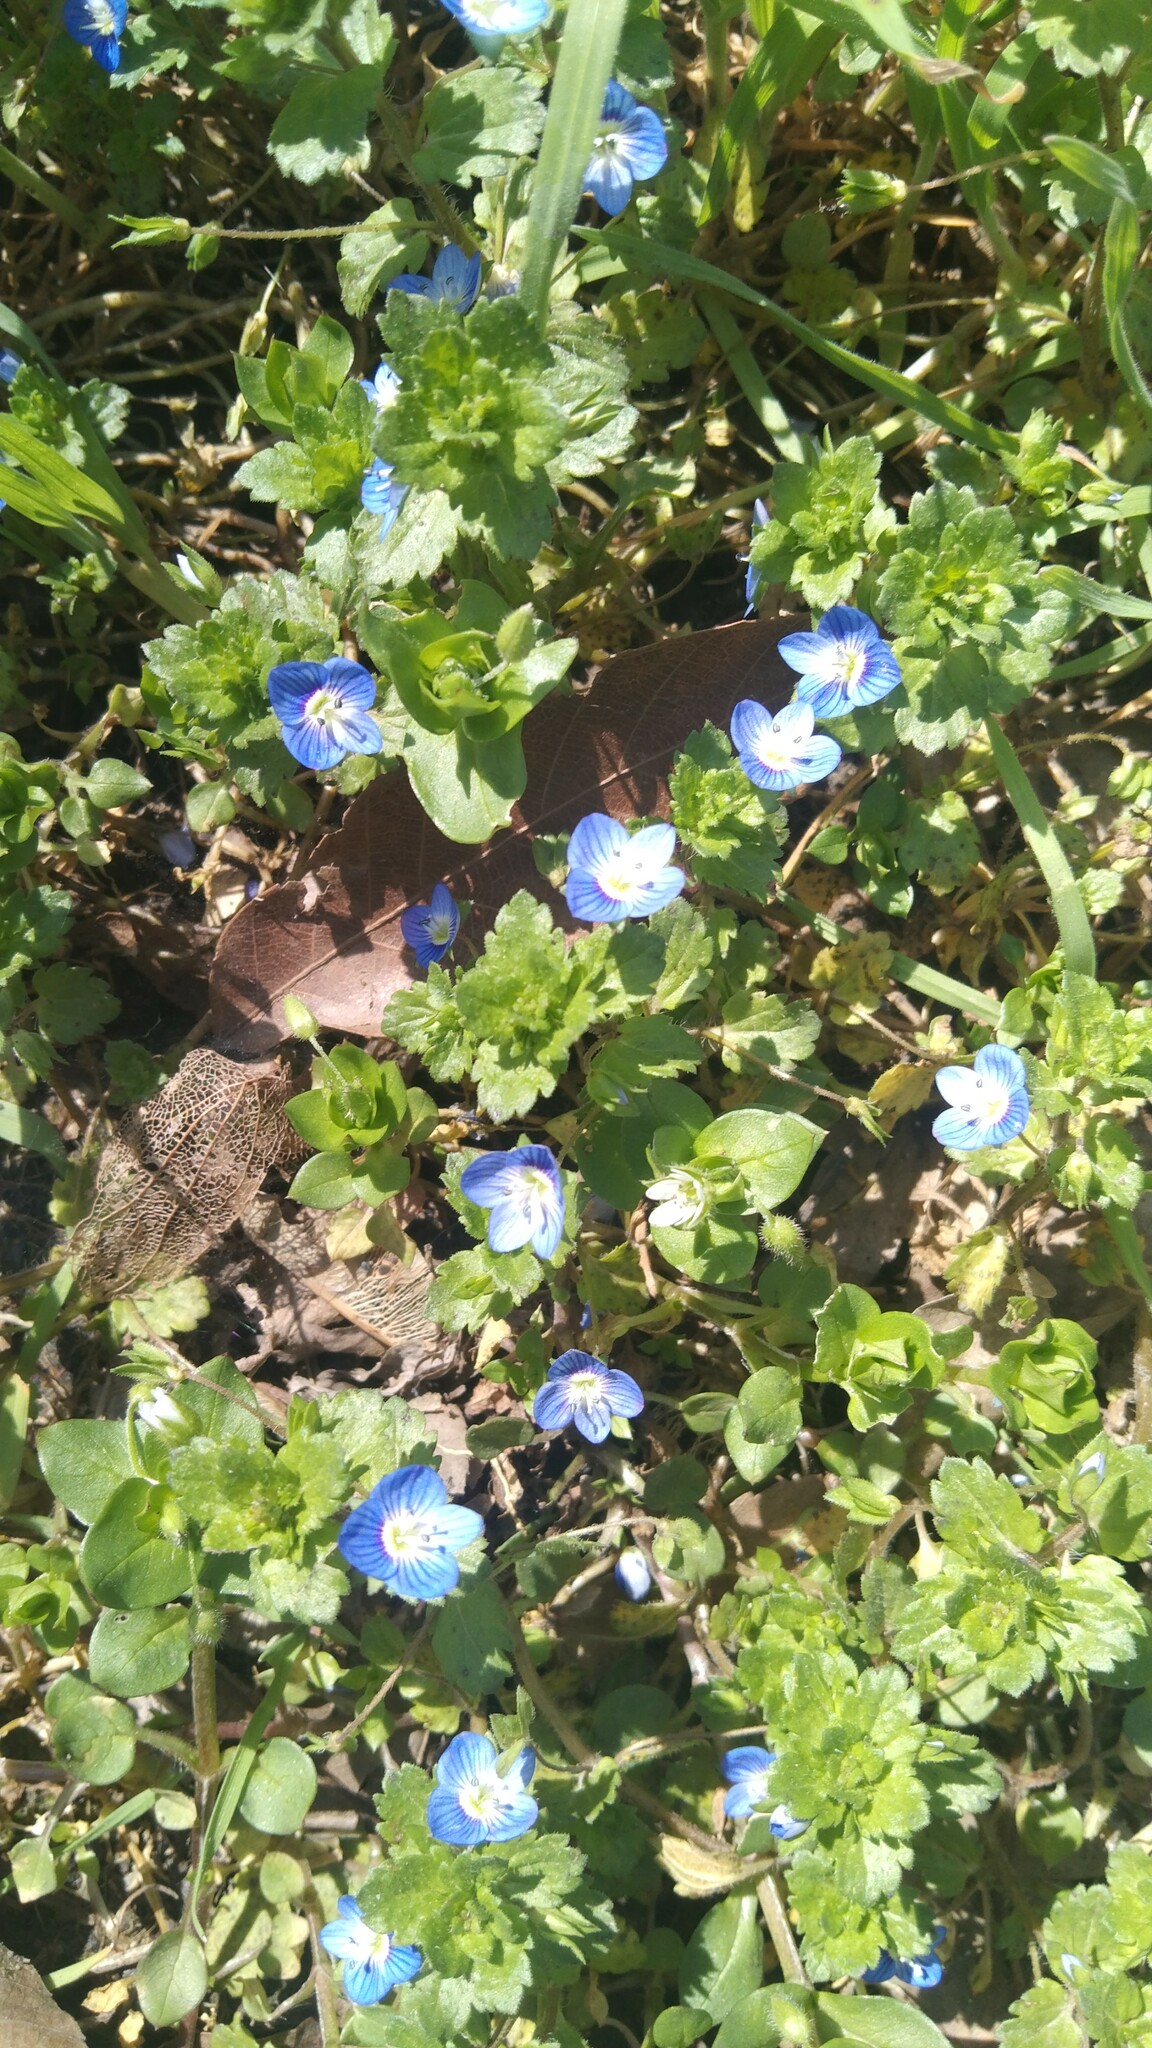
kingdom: Plantae
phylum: Tracheophyta
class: Magnoliopsida
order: Lamiales
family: Plantaginaceae
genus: Veronica
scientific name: Veronica persica
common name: Common field-speedwell
